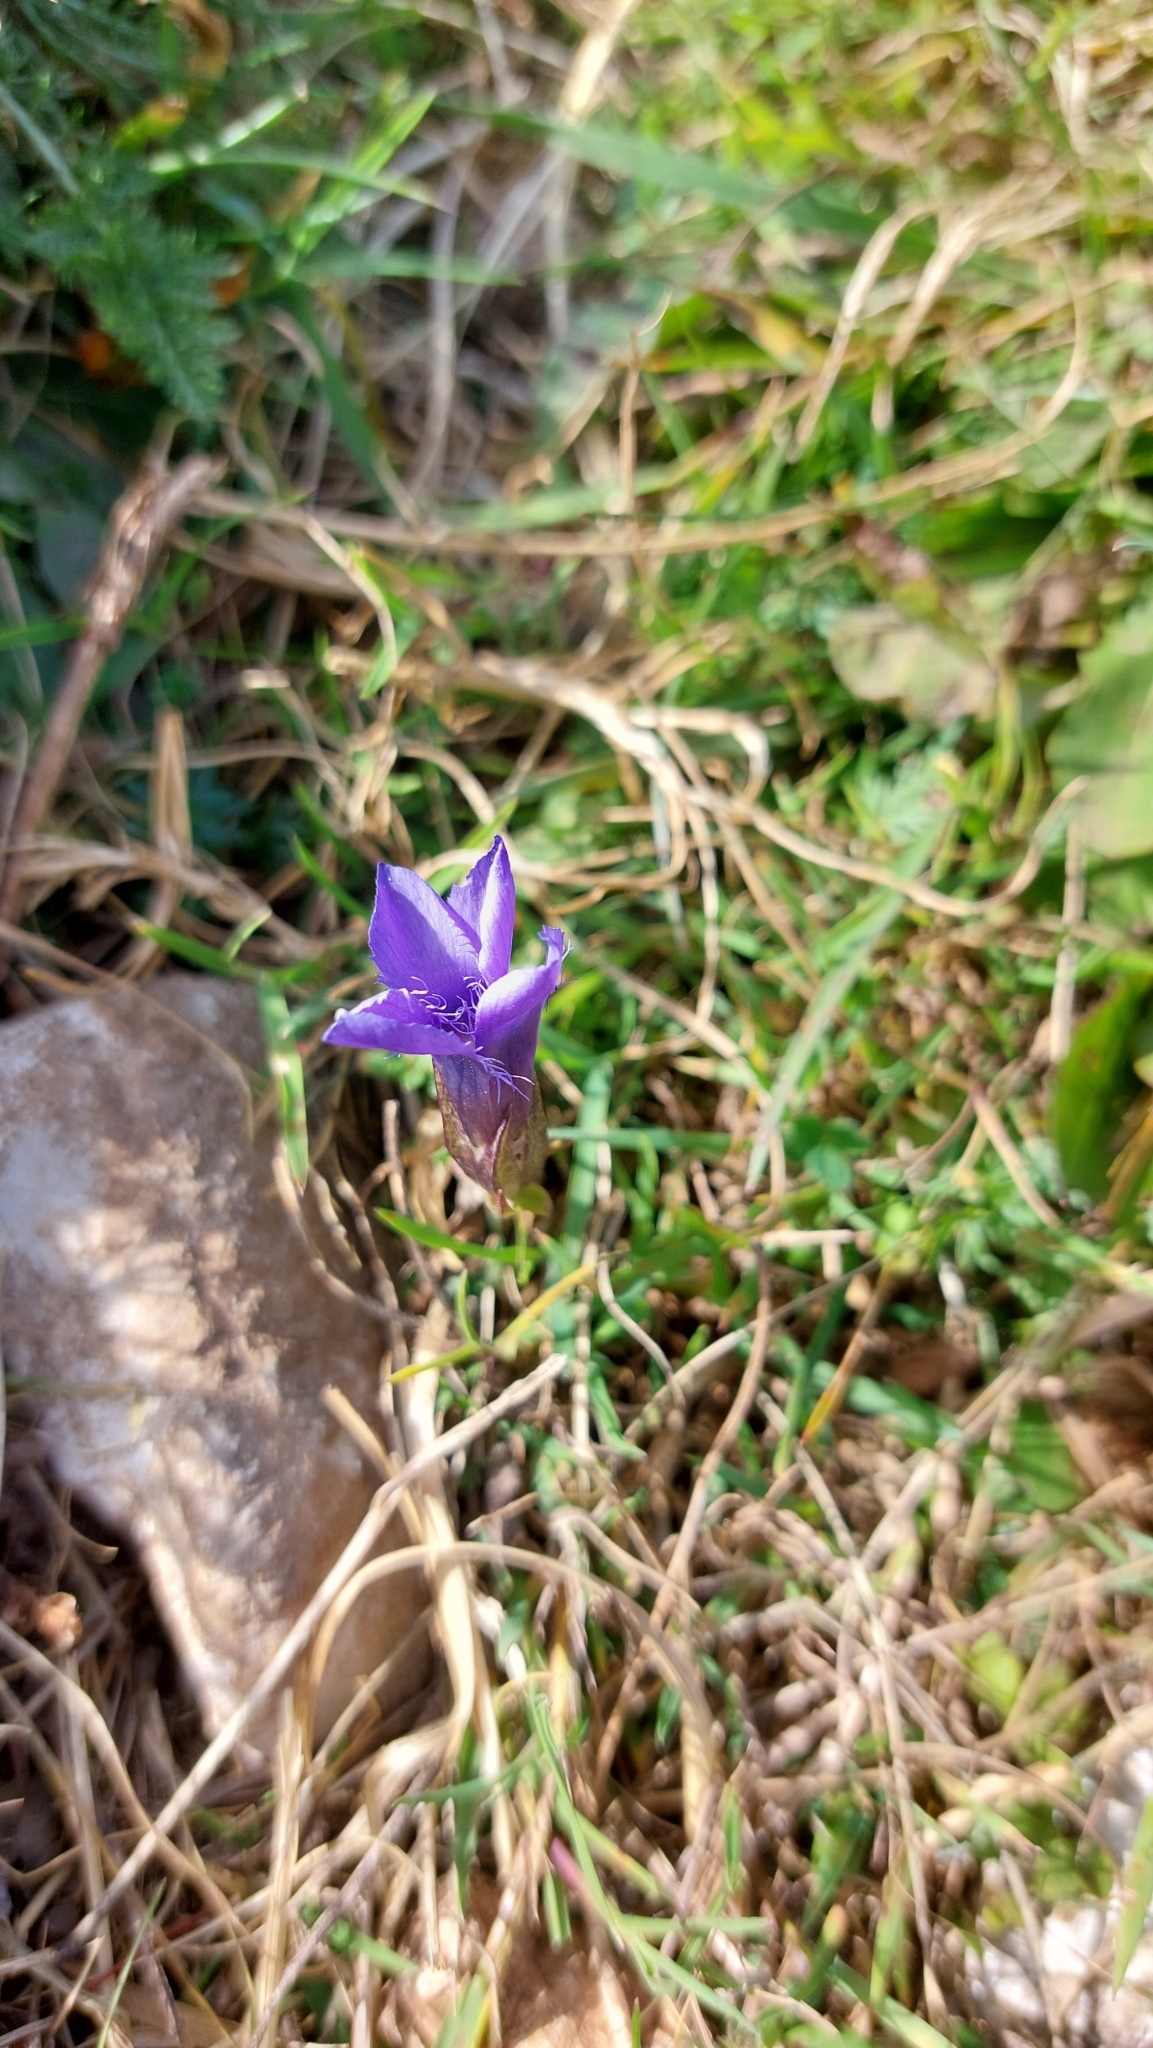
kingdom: Plantae
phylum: Tracheophyta
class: Magnoliopsida
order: Gentianales
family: Gentianaceae
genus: Gentianopsis
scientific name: Gentianopsis ciliata
